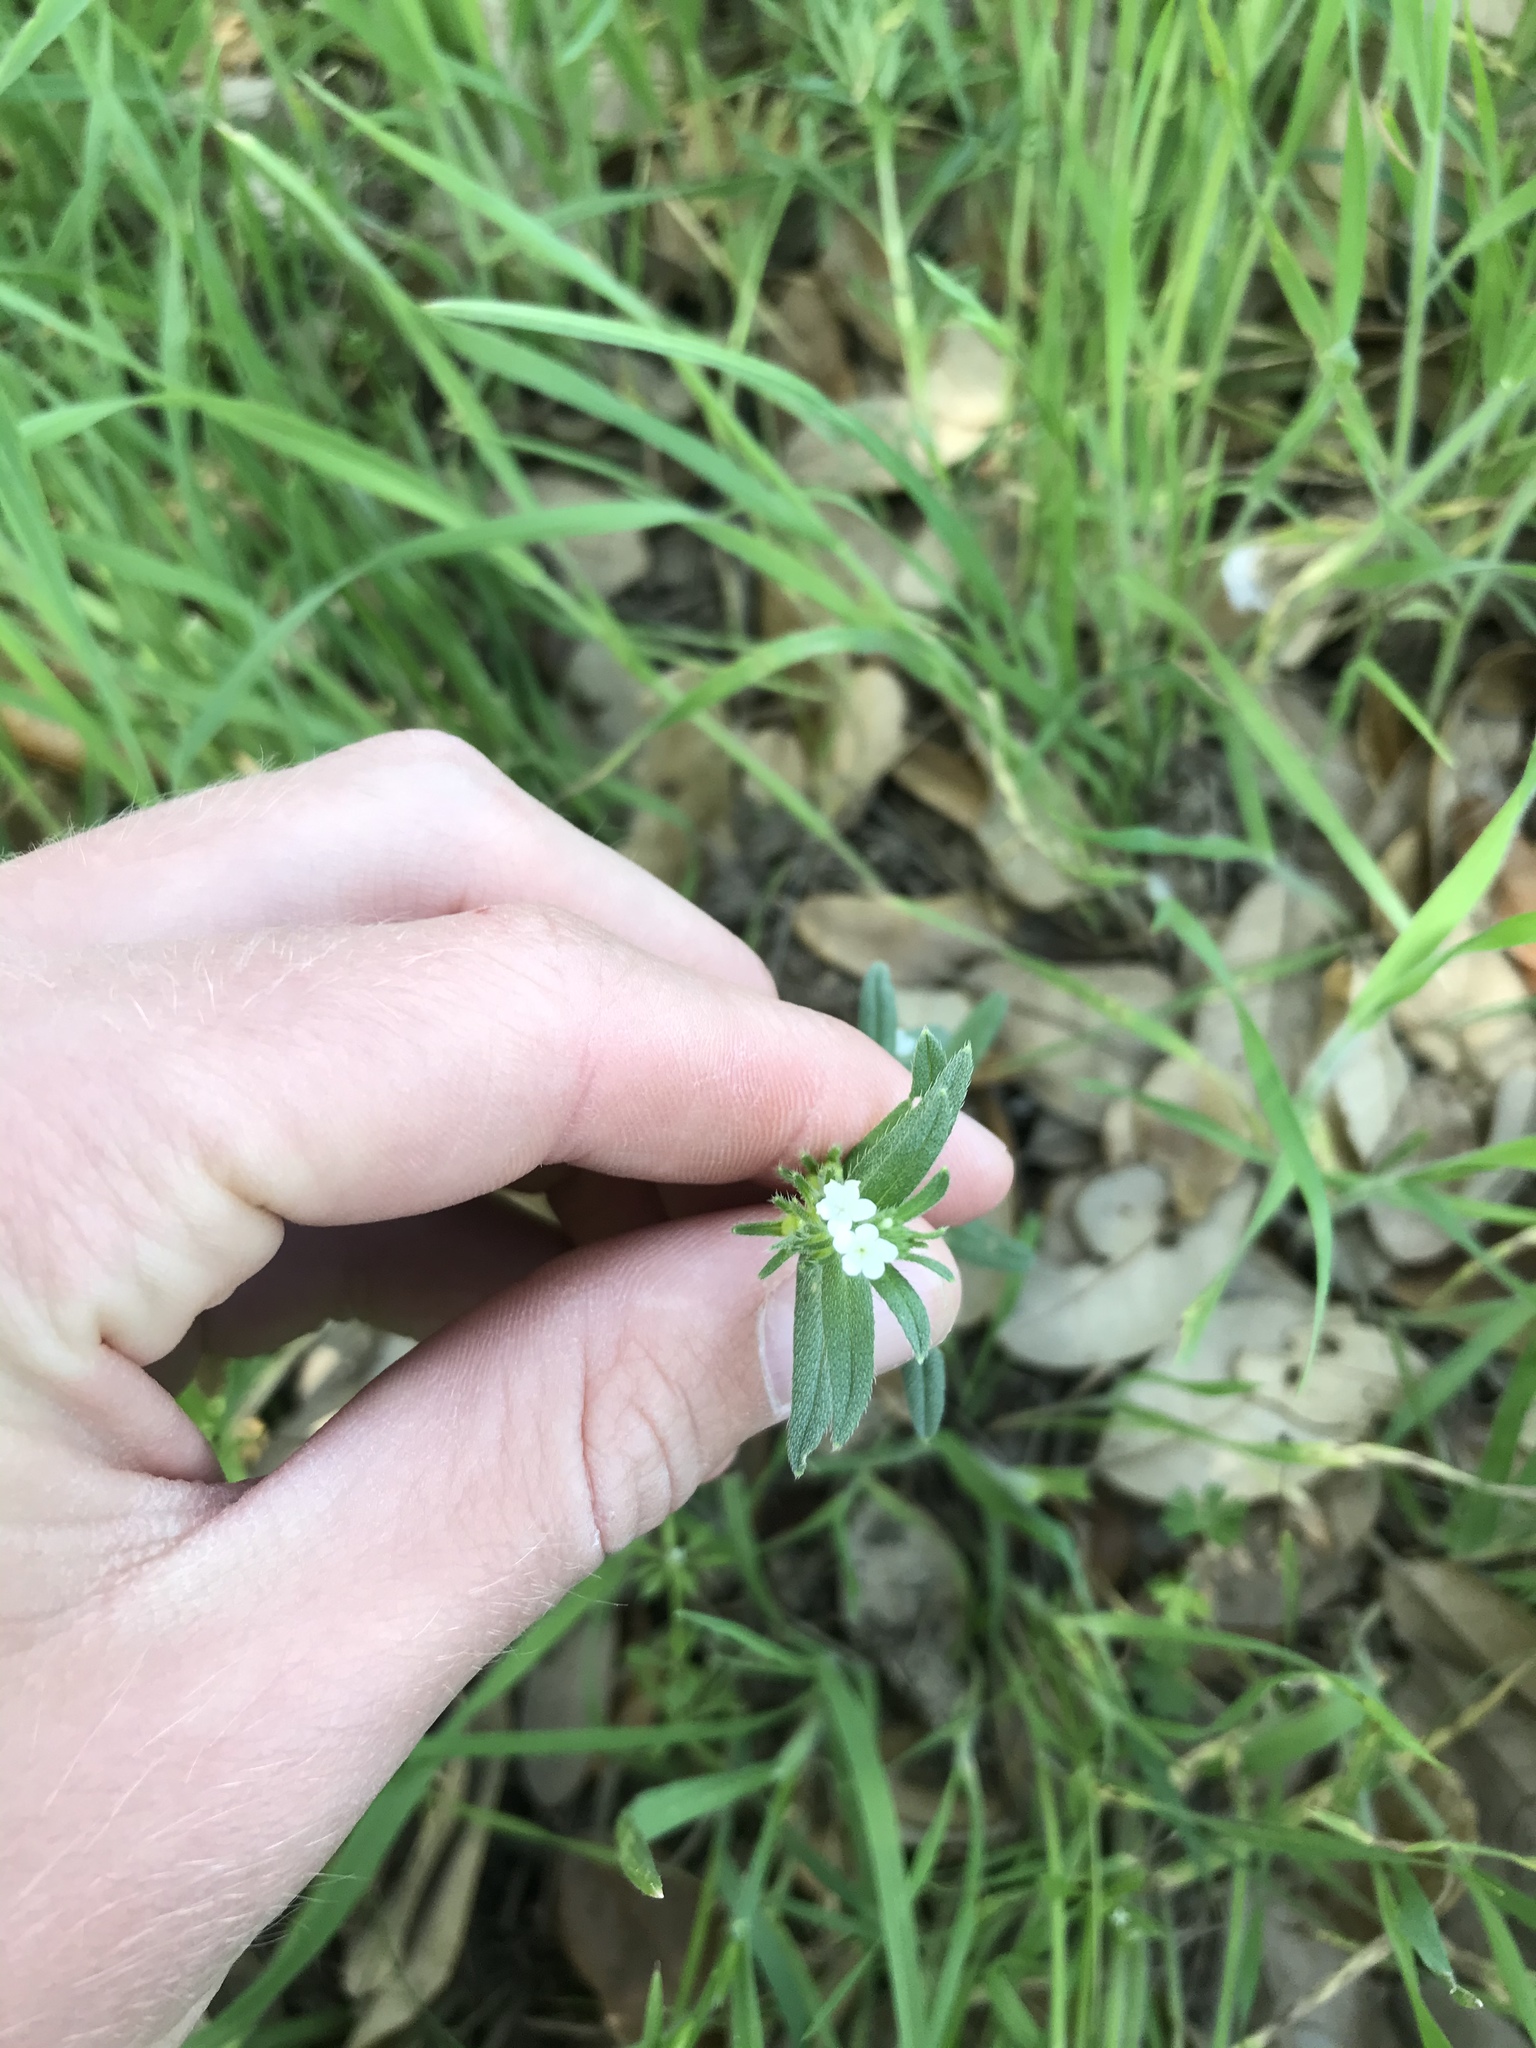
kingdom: Plantae
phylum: Tracheophyta
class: Magnoliopsida
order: Boraginales
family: Boraginaceae
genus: Buglossoides
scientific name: Buglossoides arvensis
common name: Corn gromwell
